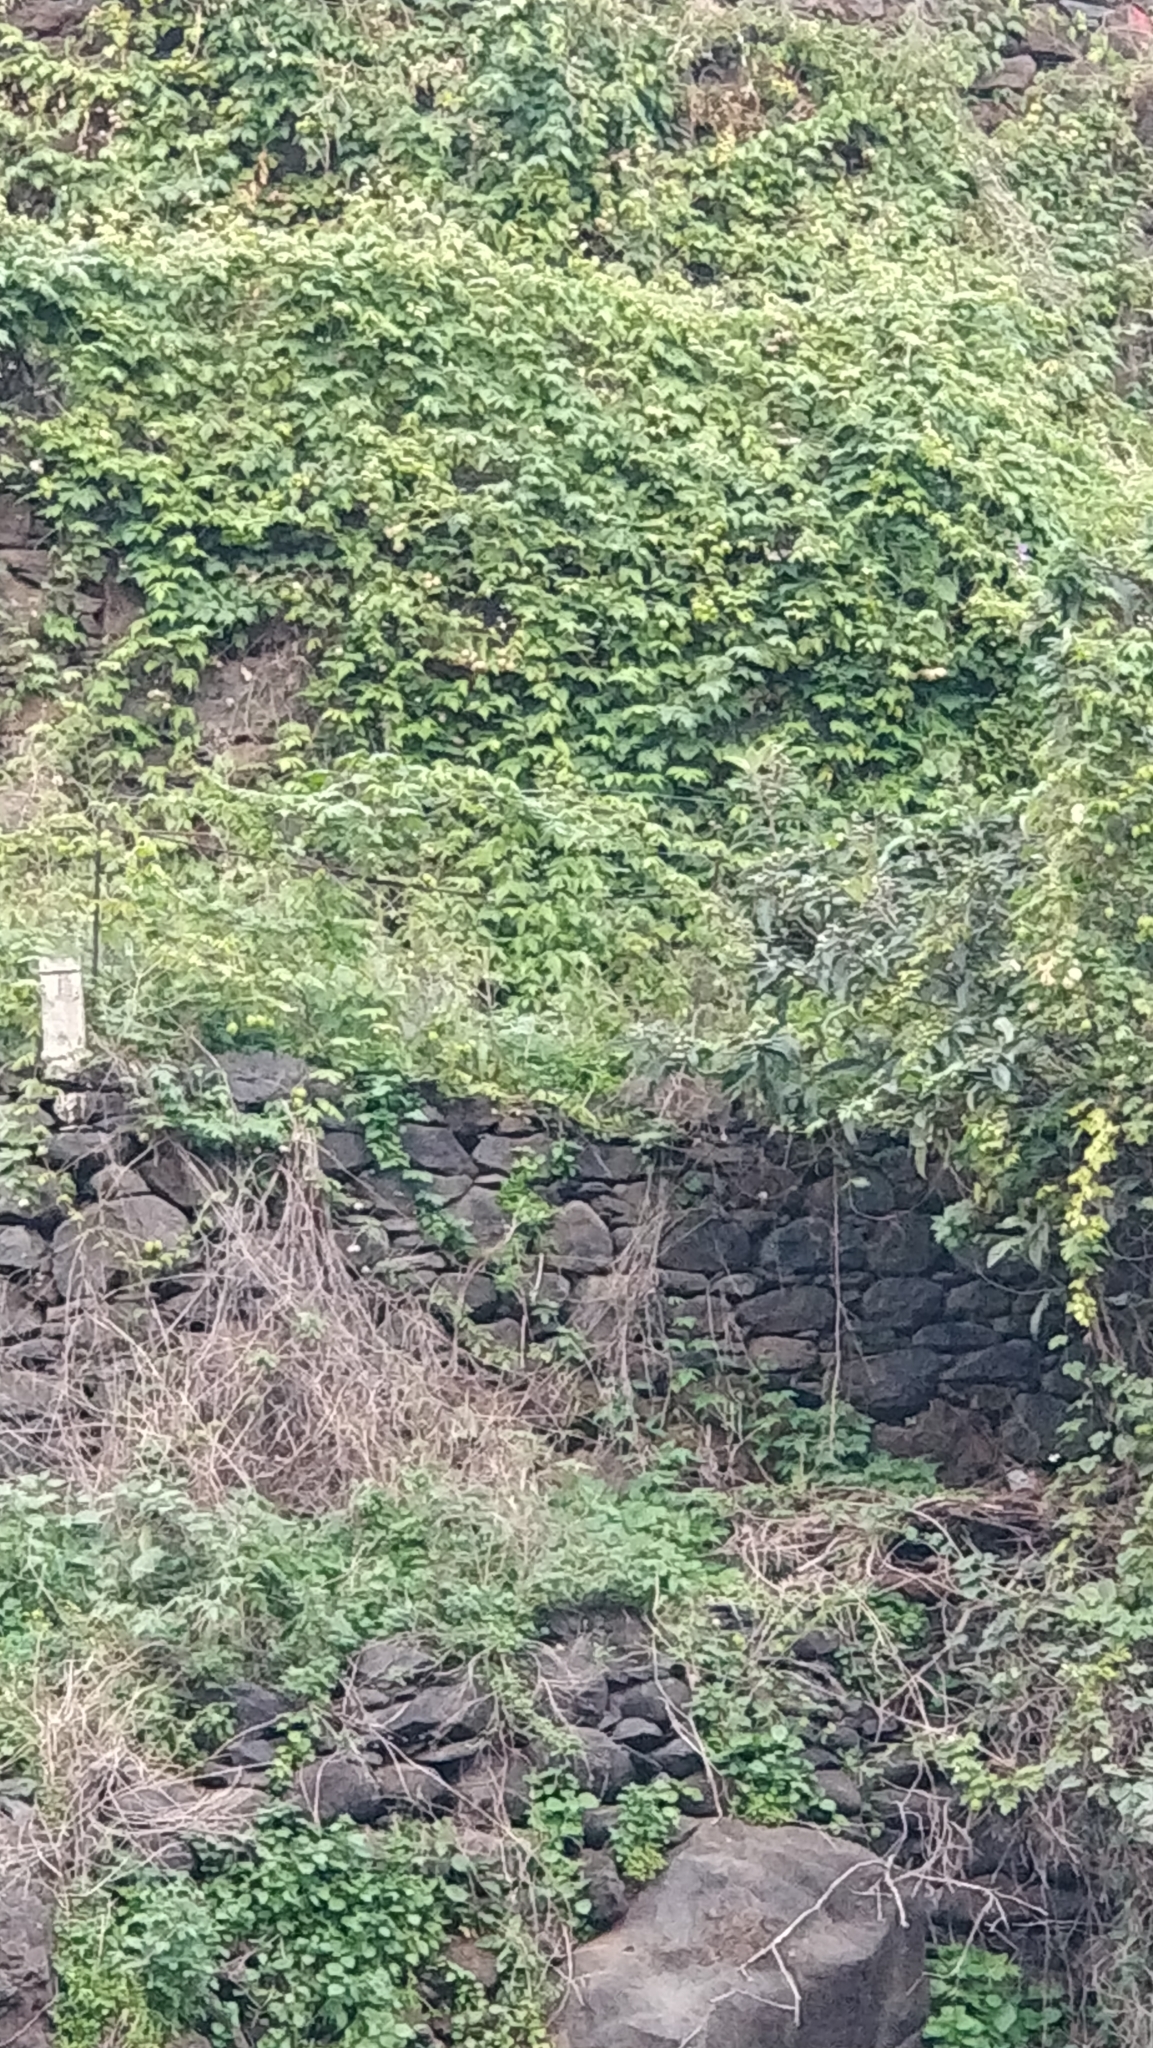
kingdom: Plantae
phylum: Tracheophyta
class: Magnoliopsida
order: Sapindales
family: Sapindaceae
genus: Cardiospermum
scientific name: Cardiospermum grandiflorum
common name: Balloon vine
